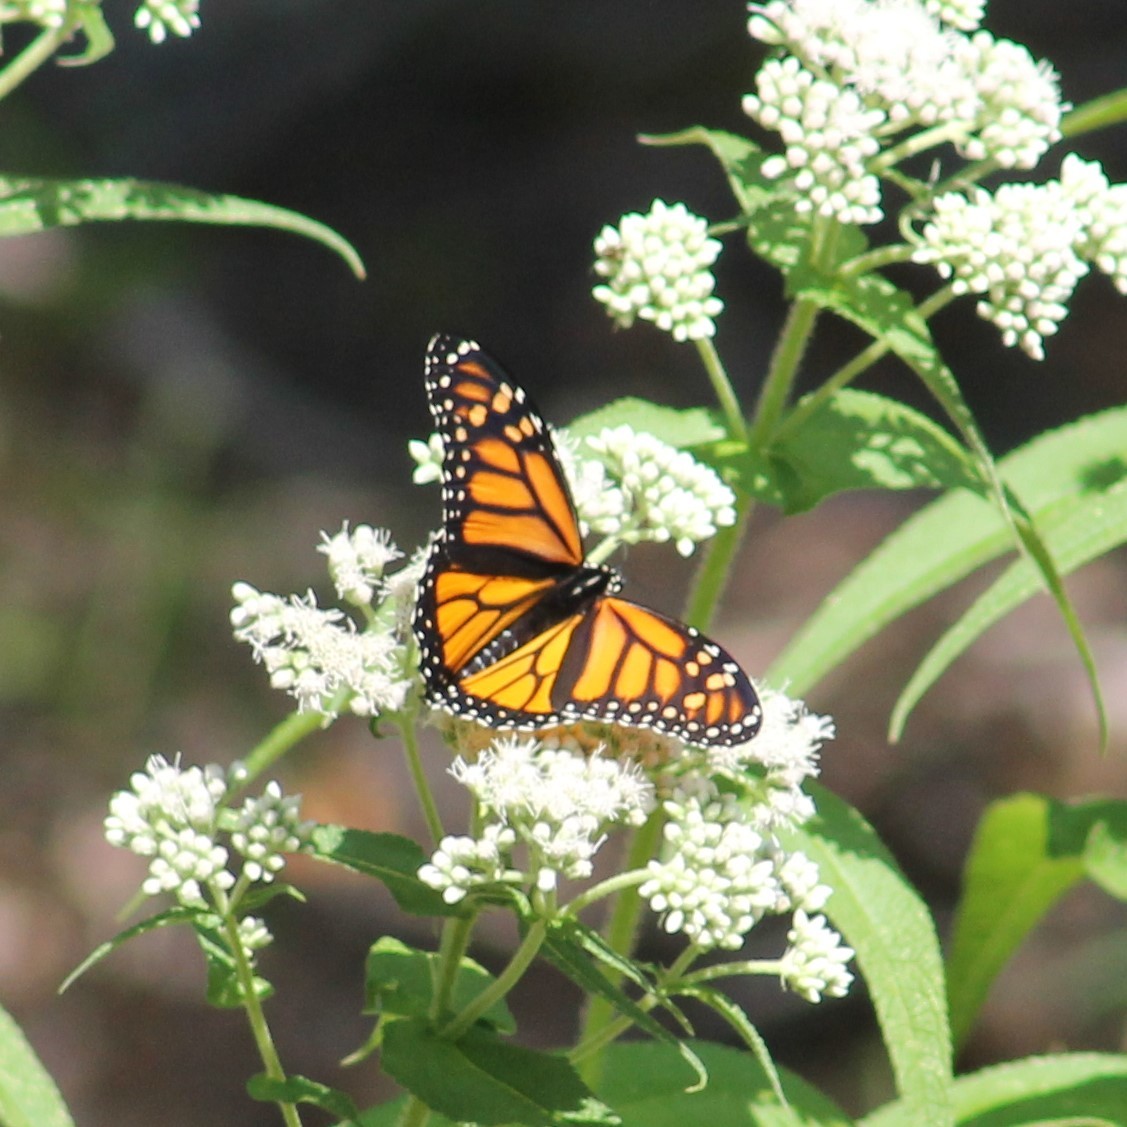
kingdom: Animalia
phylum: Arthropoda
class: Insecta
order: Lepidoptera
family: Nymphalidae
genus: Danaus
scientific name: Danaus plexippus
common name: Monarch
